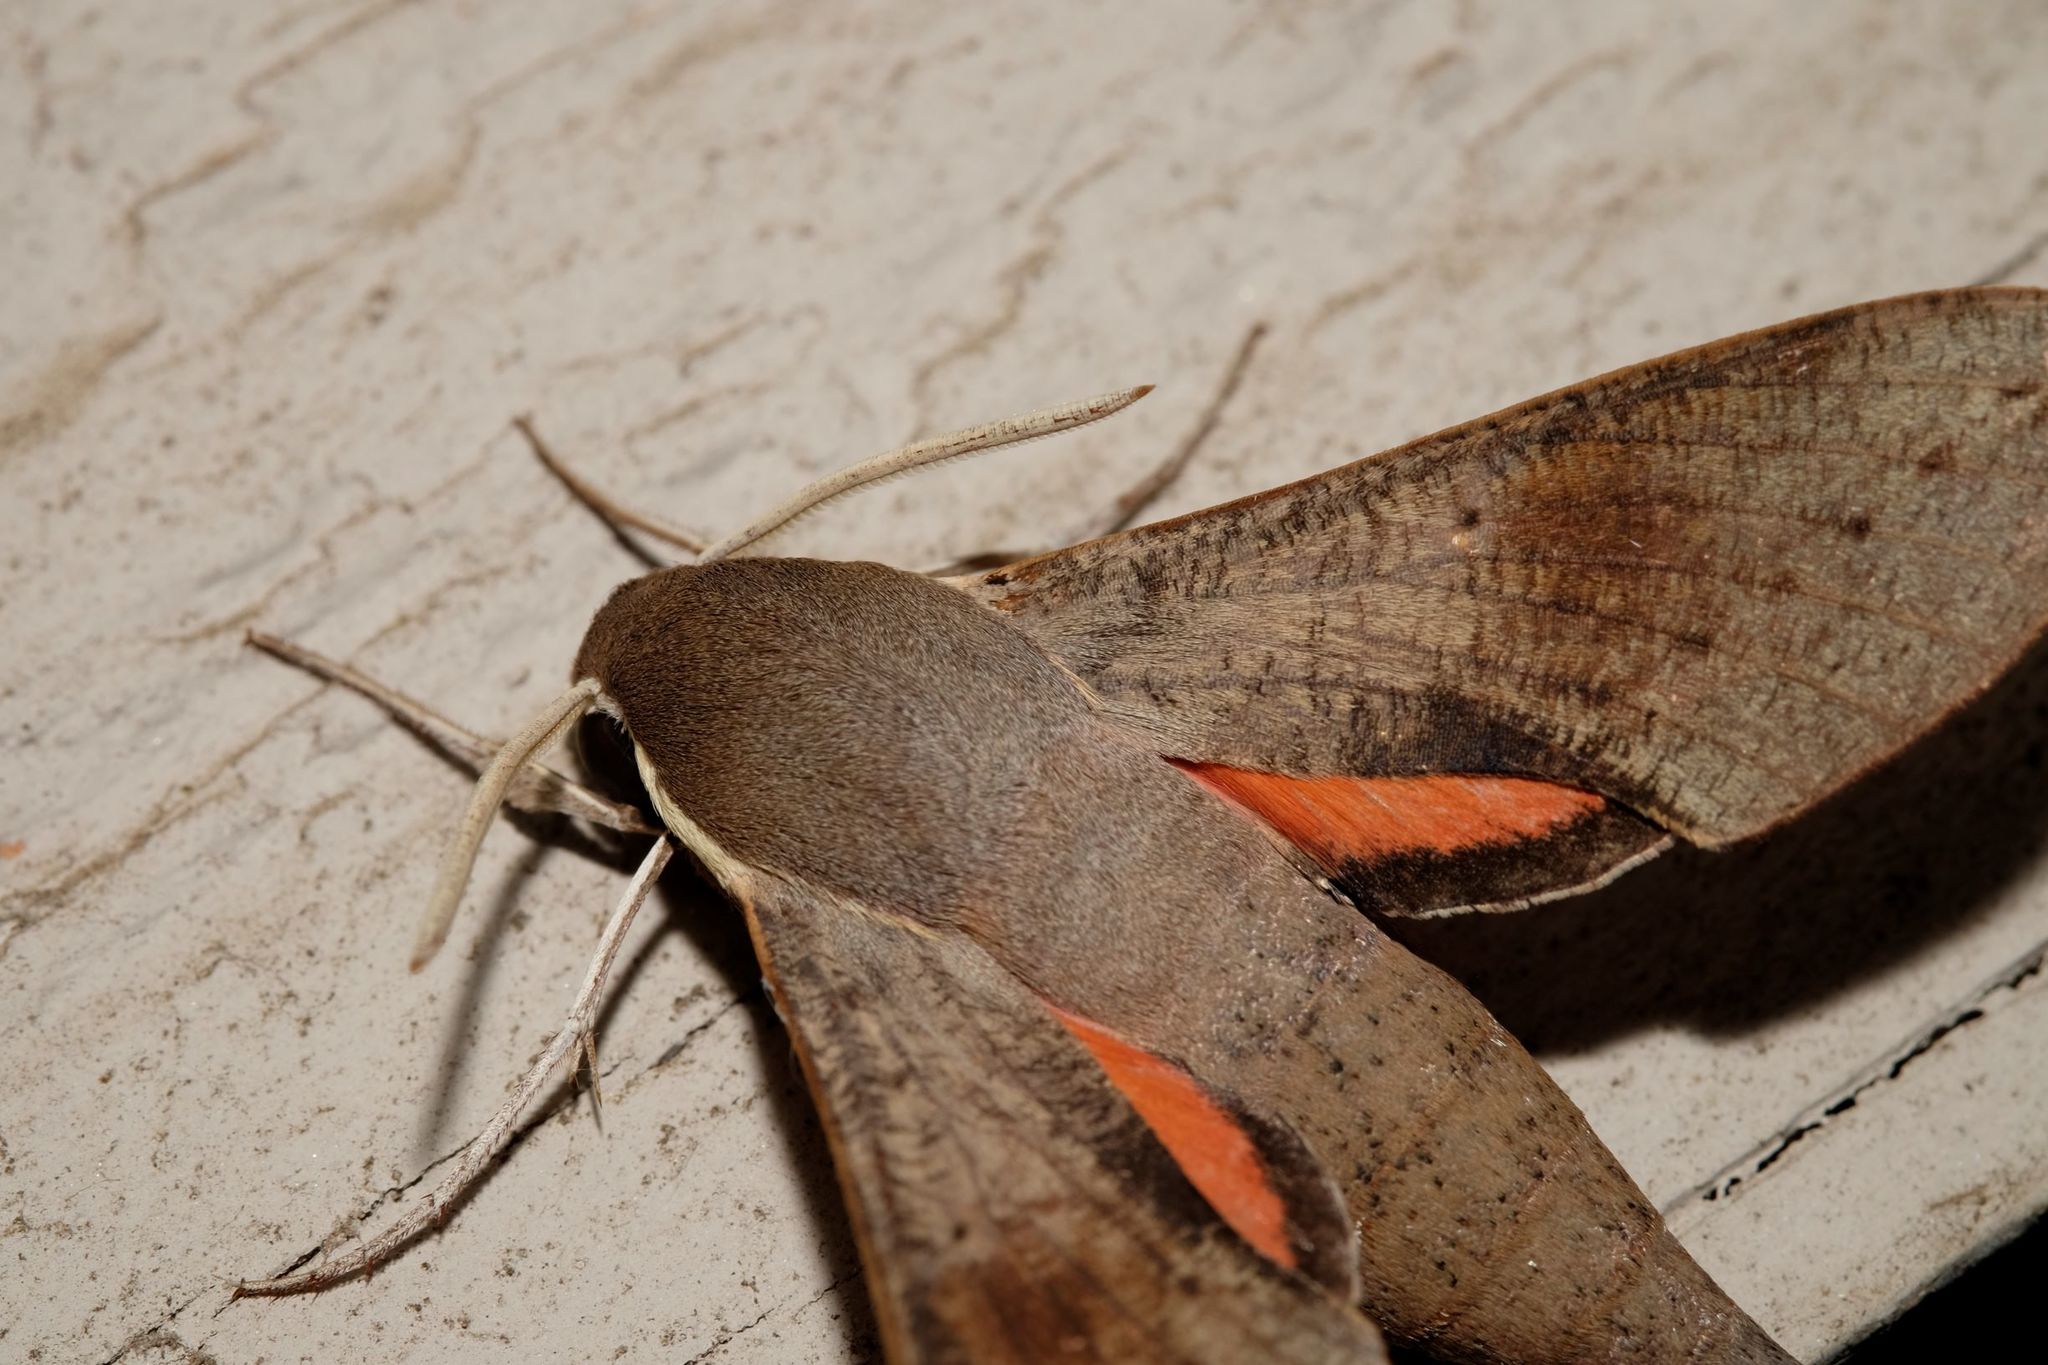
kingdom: Animalia
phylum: Arthropoda
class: Insecta
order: Lepidoptera
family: Sphingidae
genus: Hippotion
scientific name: Hippotion scrofa
